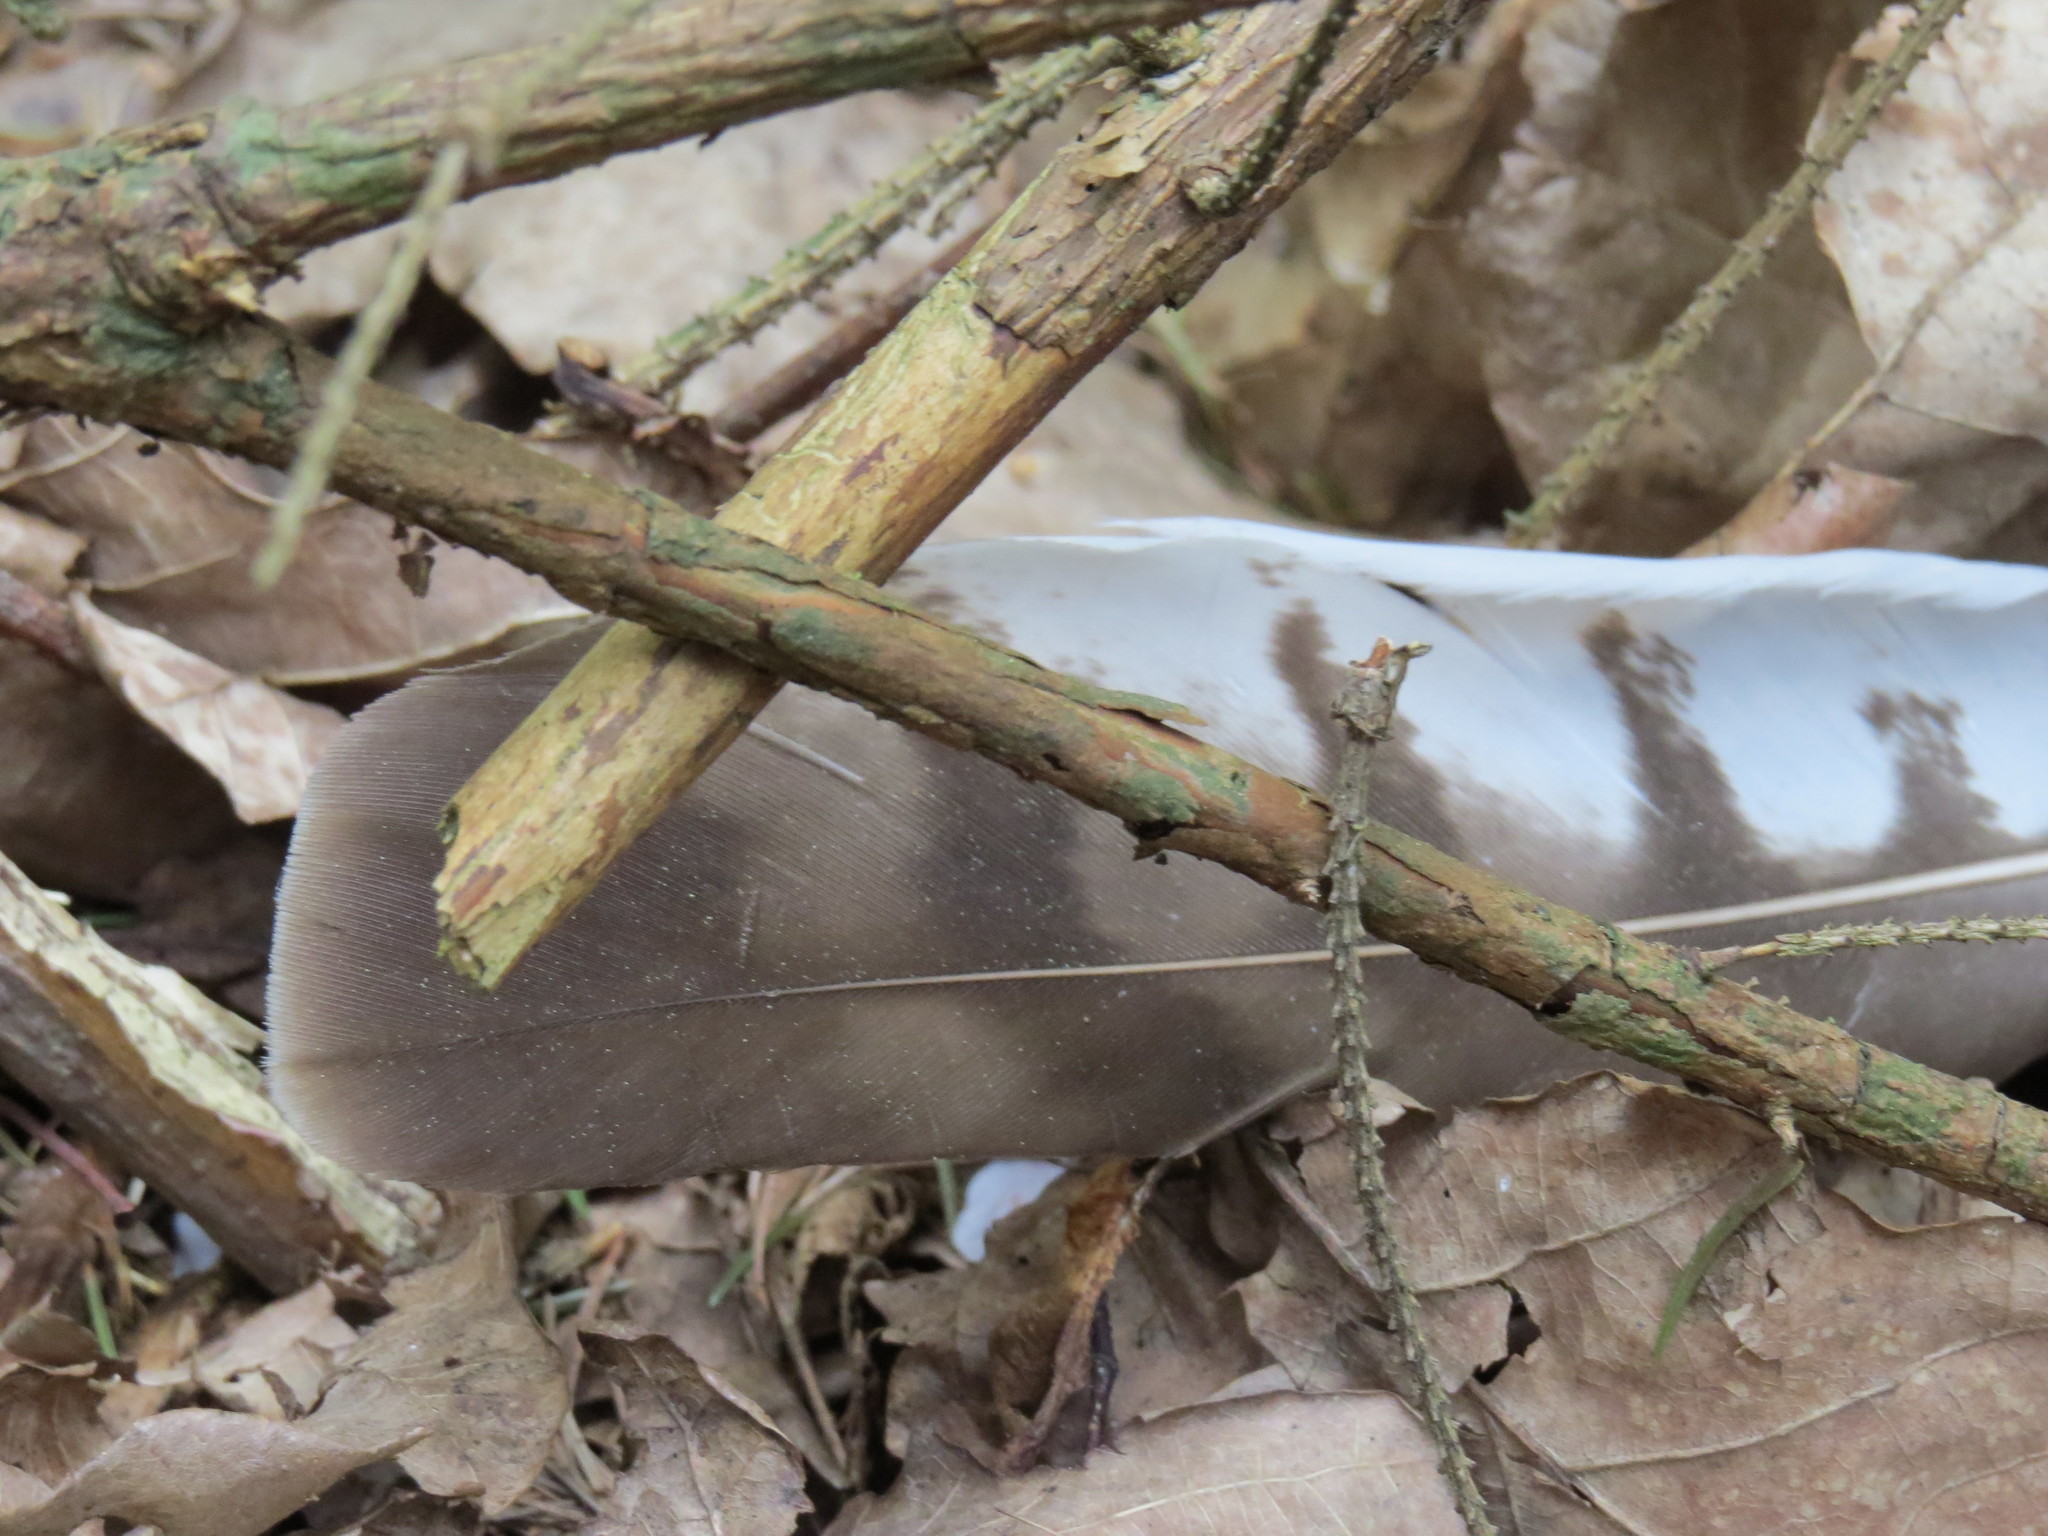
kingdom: Animalia
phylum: Chordata
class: Aves
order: Accipitriformes
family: Accipitridae
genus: Buteo
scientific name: Buteo buteo
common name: Common buzzard
